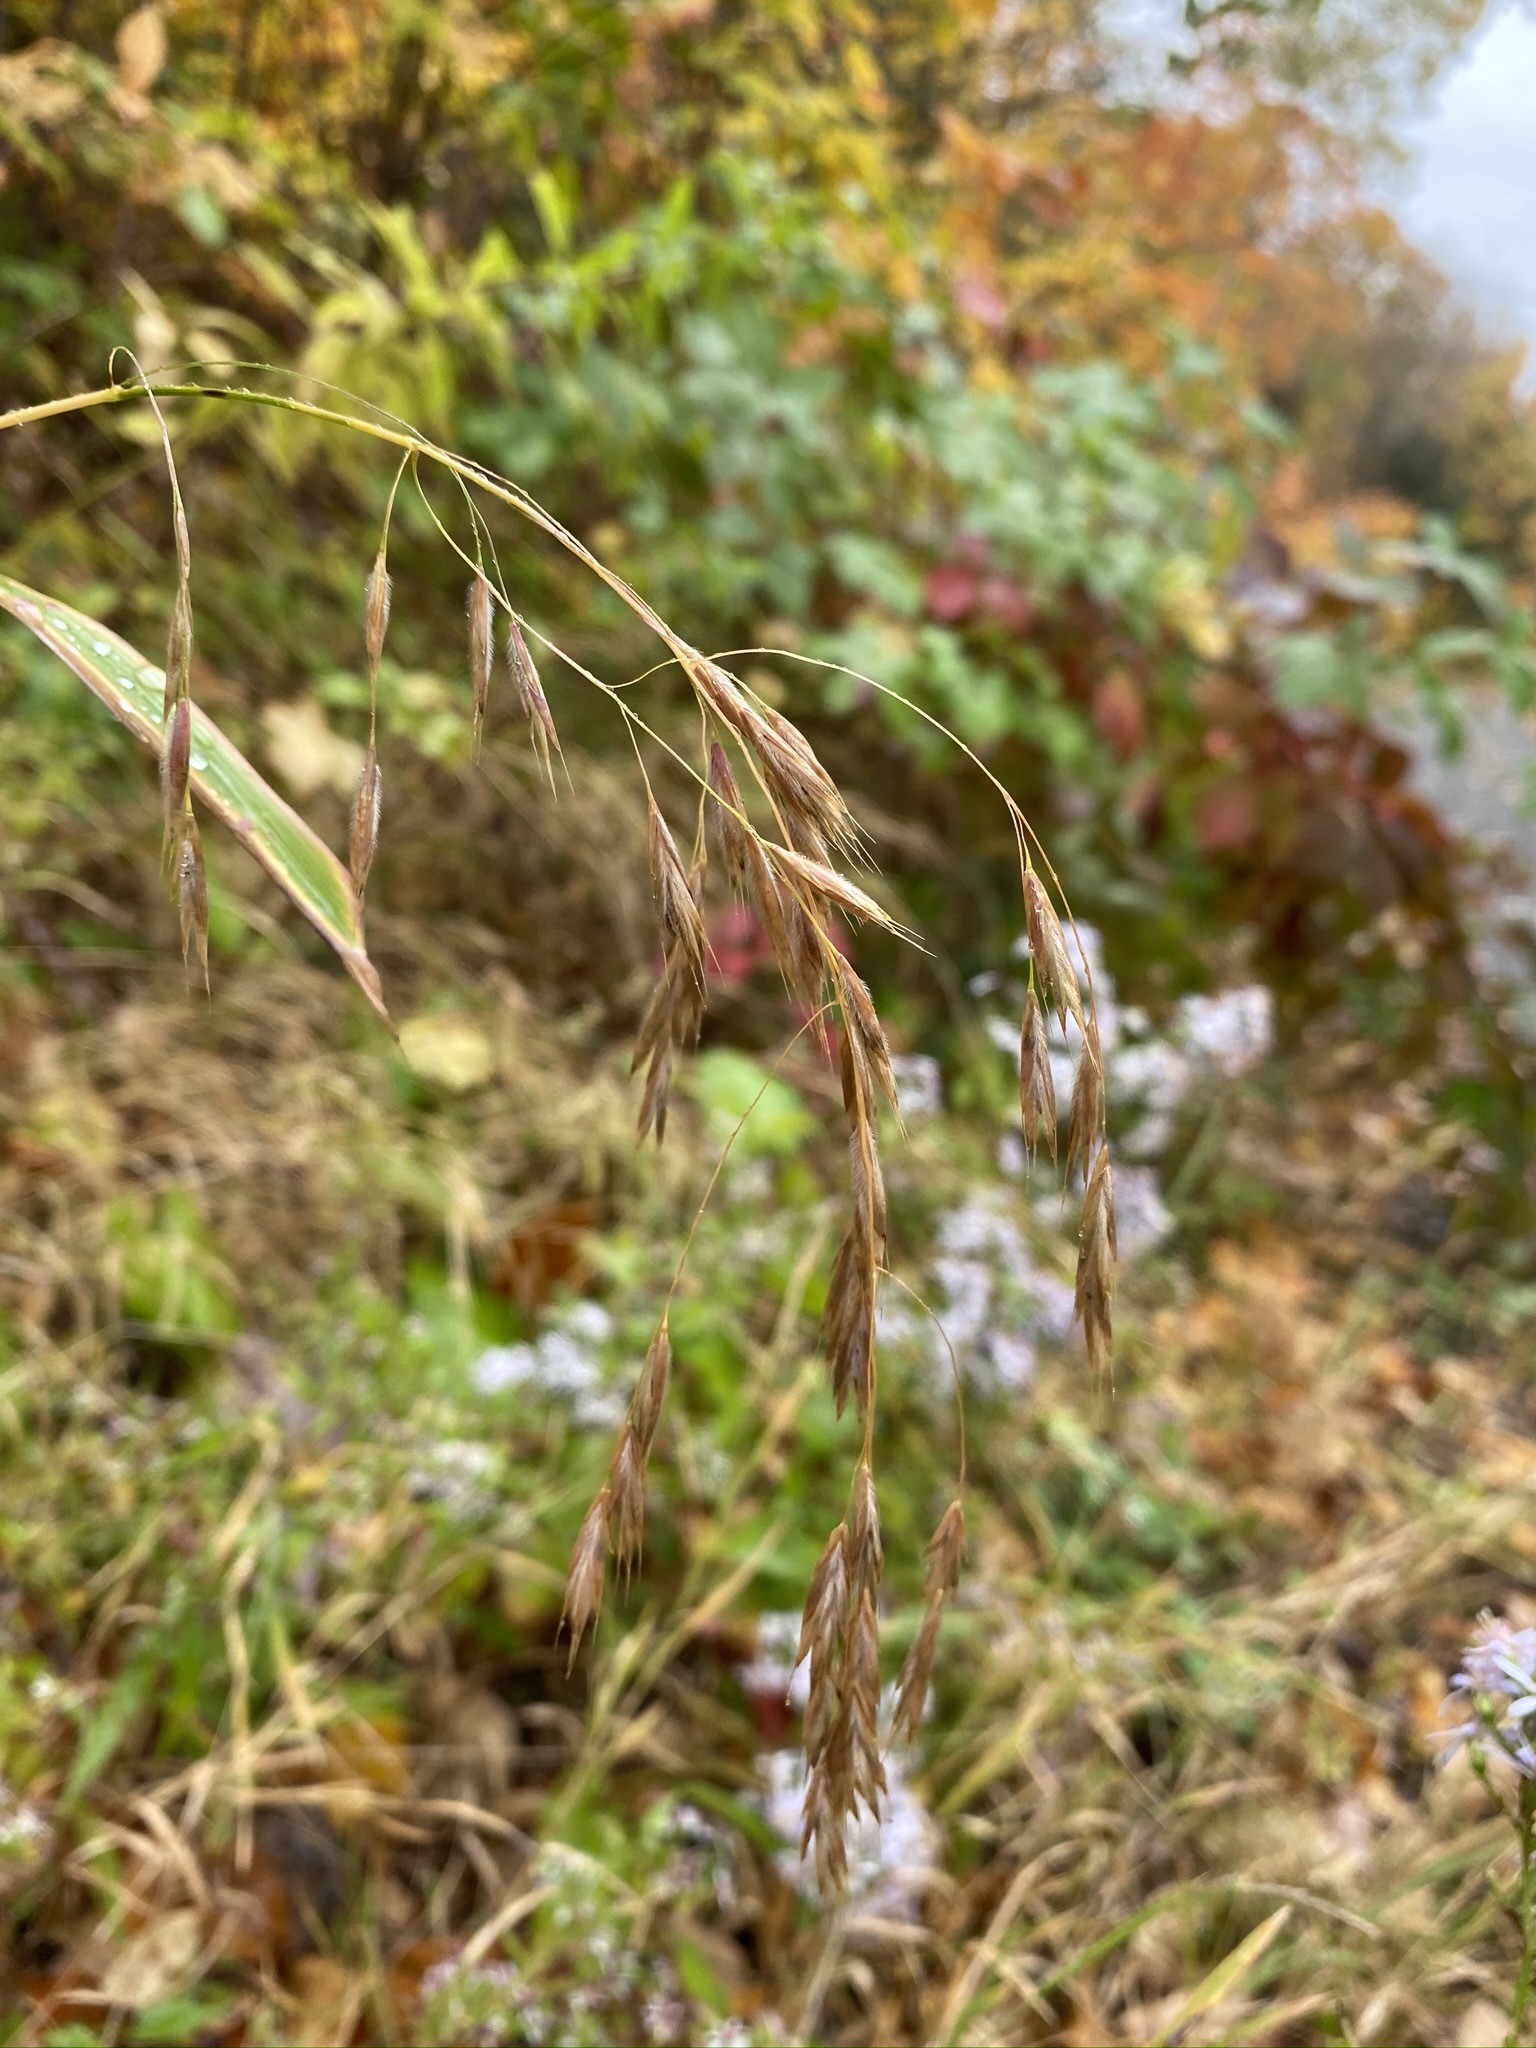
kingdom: Plantae
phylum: Tracheophyta
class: Liliopsida
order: Poales
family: Poaceae
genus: Bromus
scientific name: Bromus ciliatus
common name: Fringe brome
